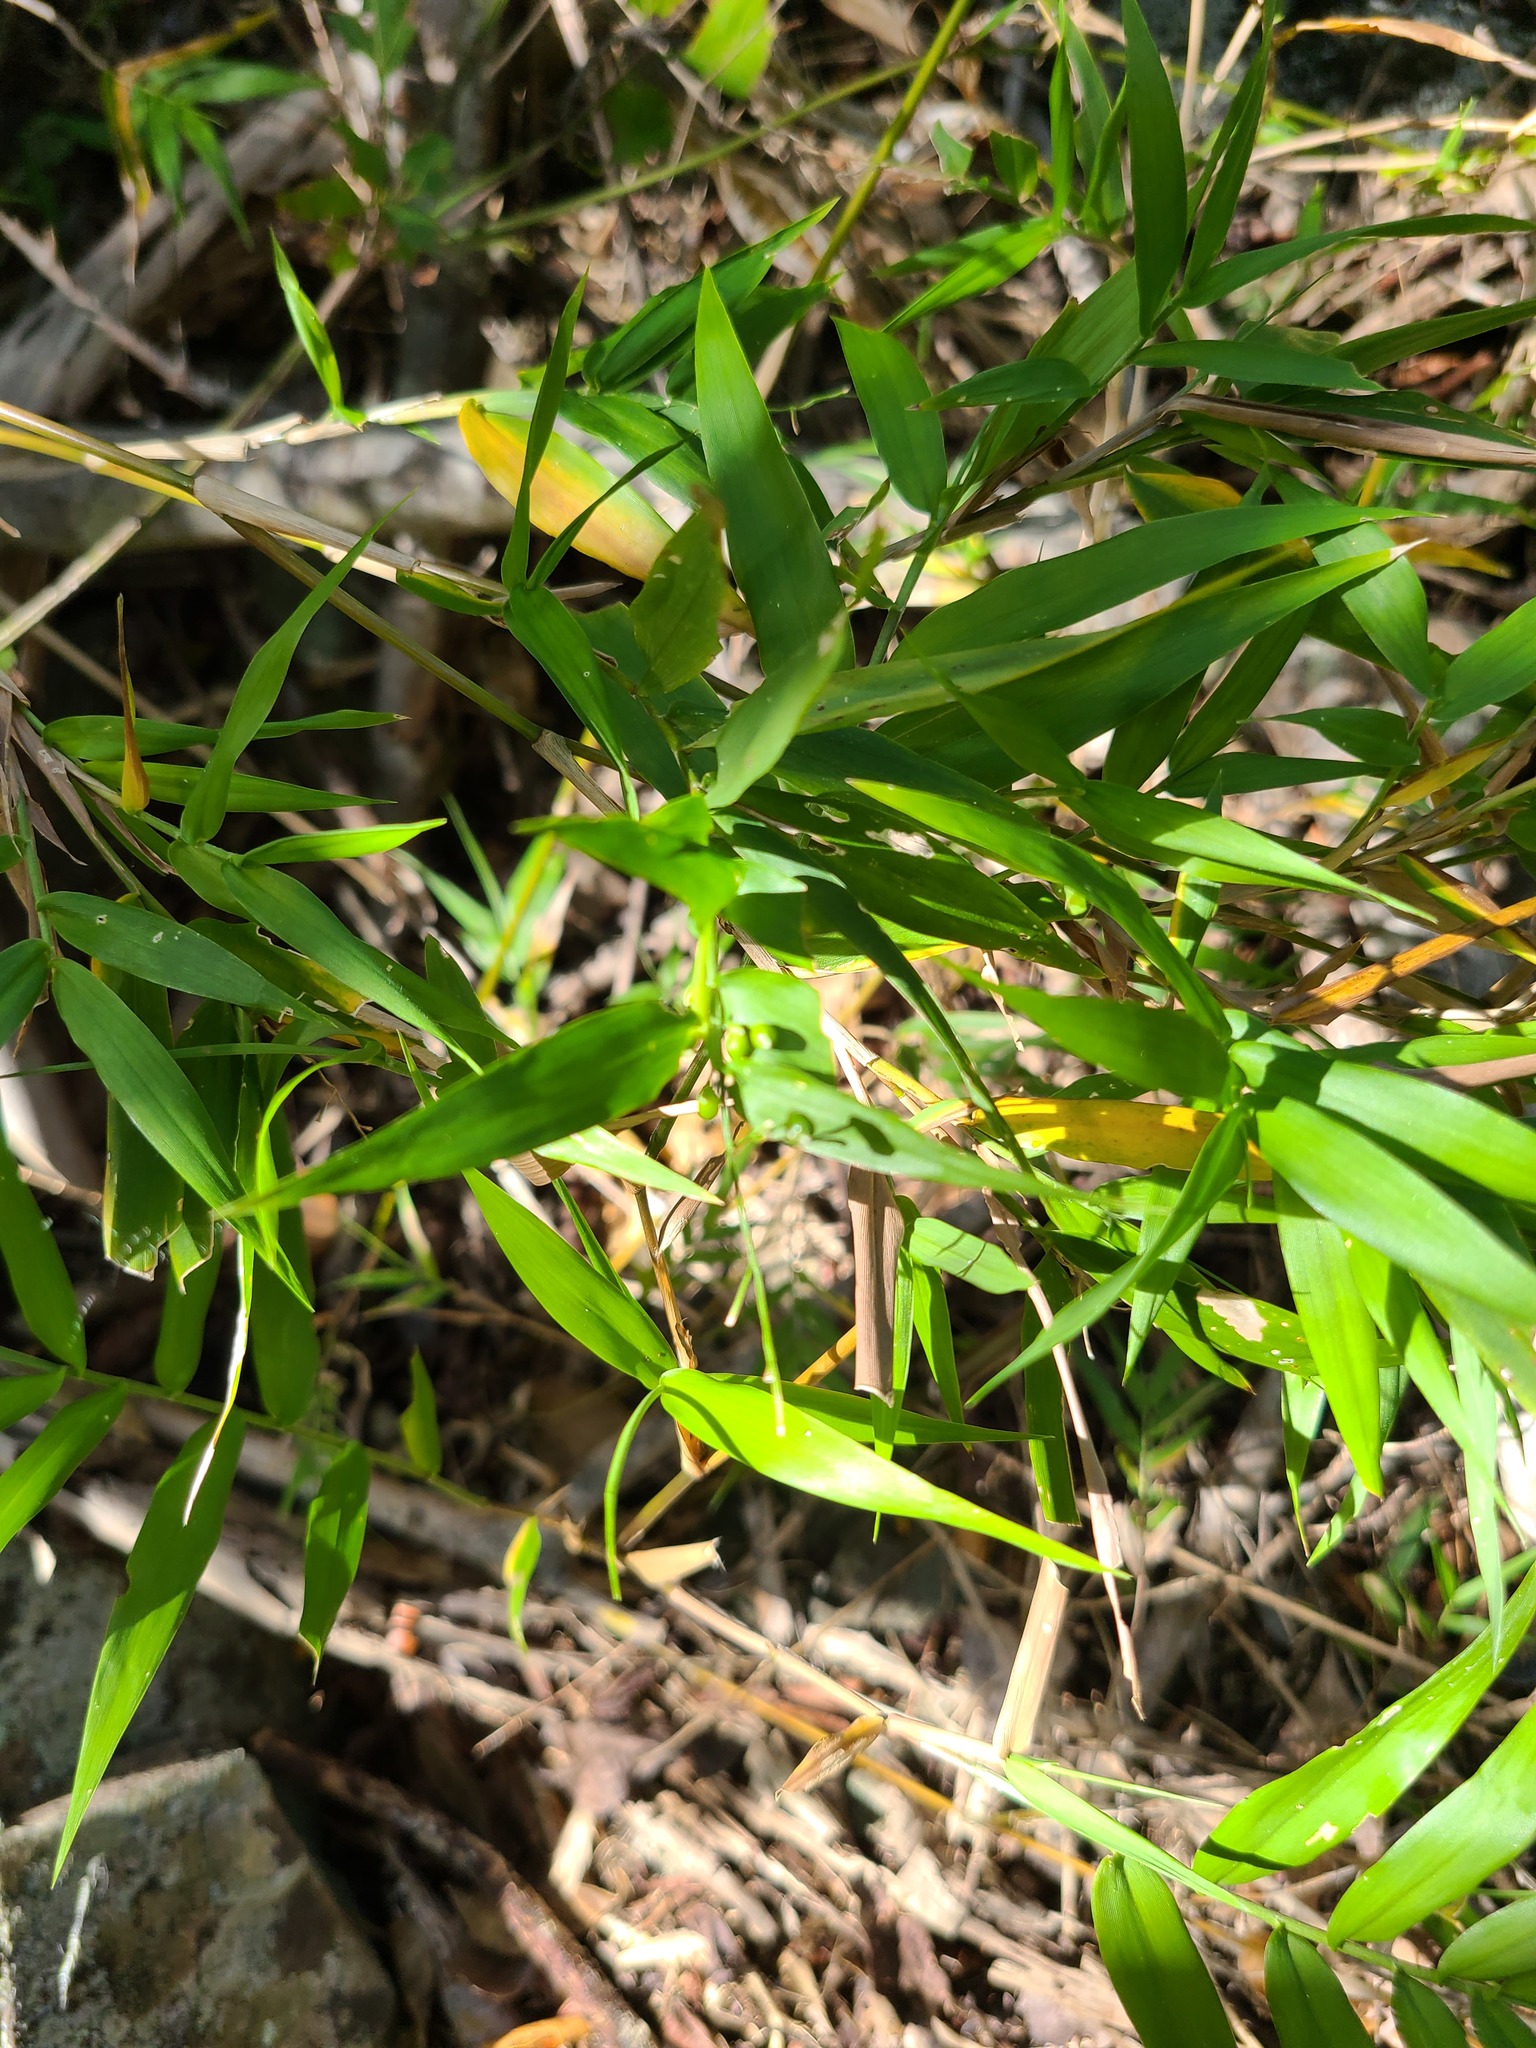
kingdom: Plantae
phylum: Tracheophyta
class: Liliopsida
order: Poales
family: Poaceae
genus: Lasiacis
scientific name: Lasiacis divaricata
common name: Smallcane
